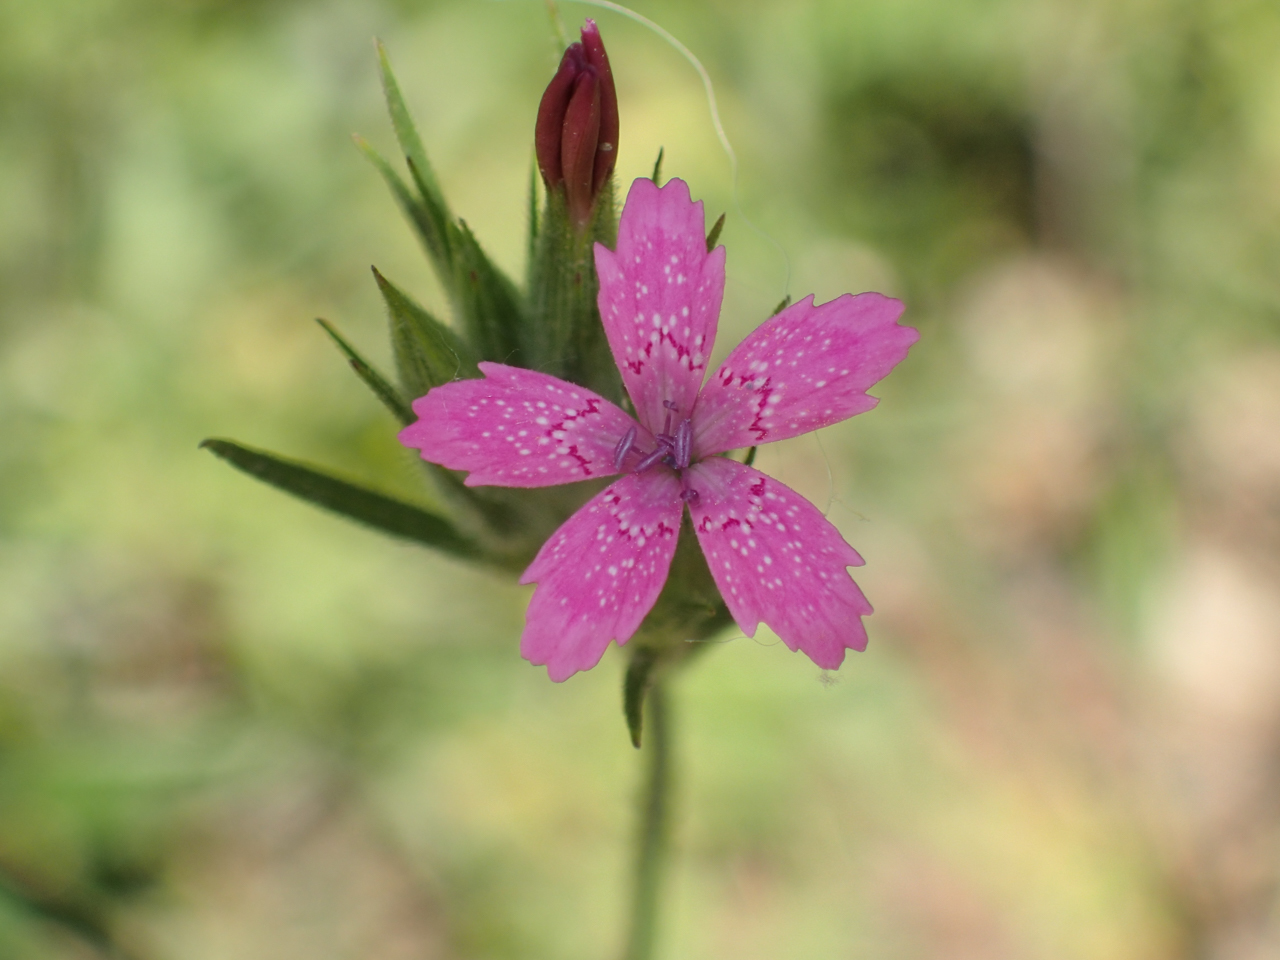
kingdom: Plantae
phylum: Tracheophyta
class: Magnoliopsida
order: Caryophyllales
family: Caryophyllaceae
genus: Dianthus
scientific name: Dianthus armeria
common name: Deptford pink
